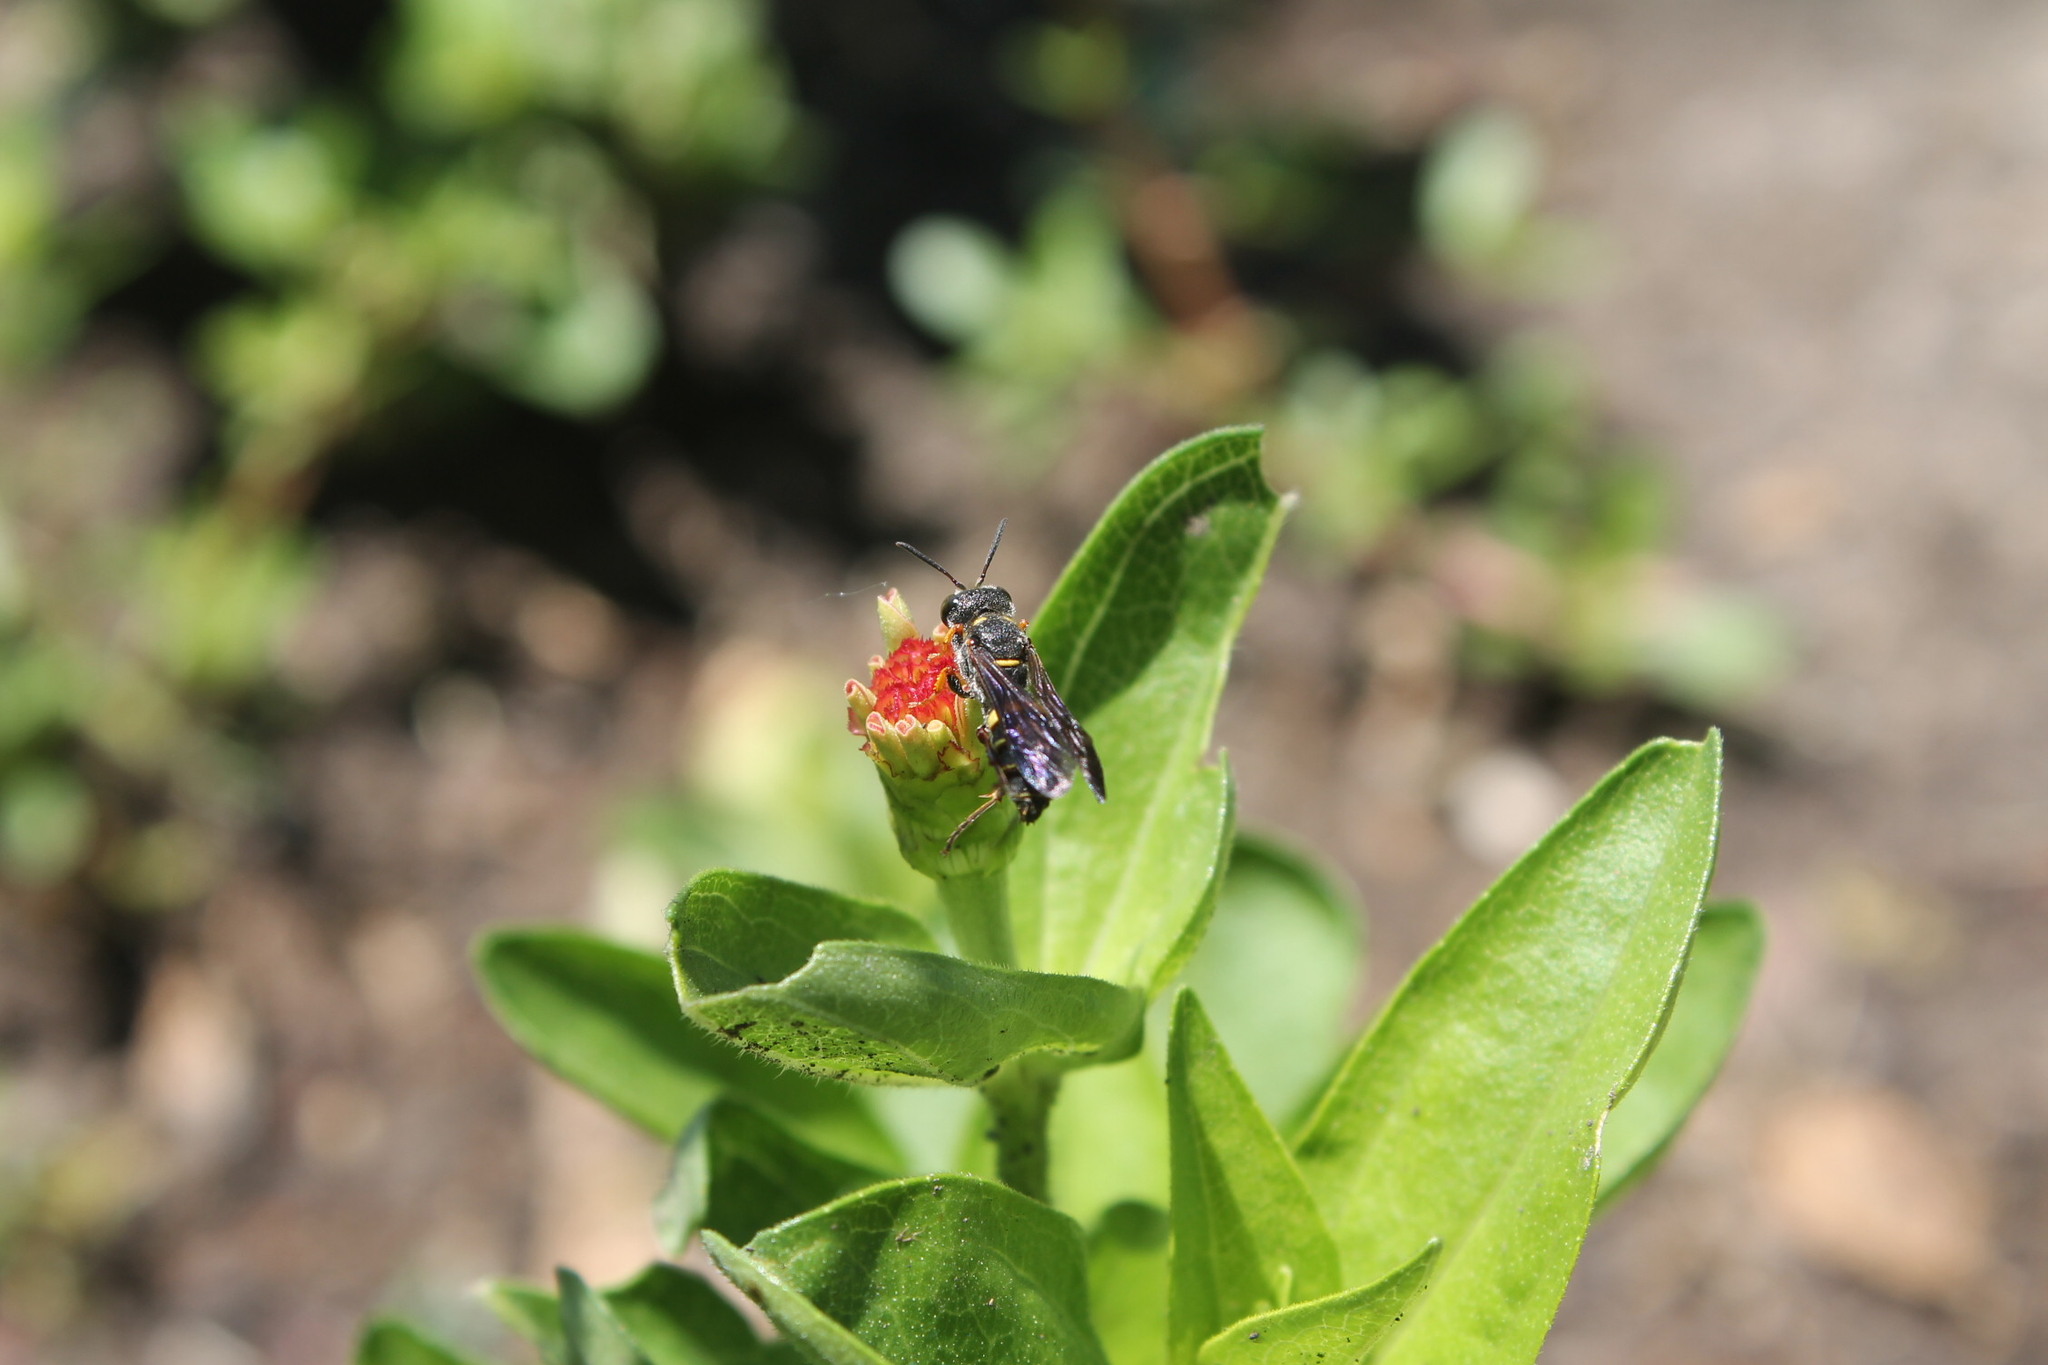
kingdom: Animalia
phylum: Arthropoda
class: Insecta
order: Hymenoptera
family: Crabronidae
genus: Cerceris
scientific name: Cerceris clypeata
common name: Weevil wasp
